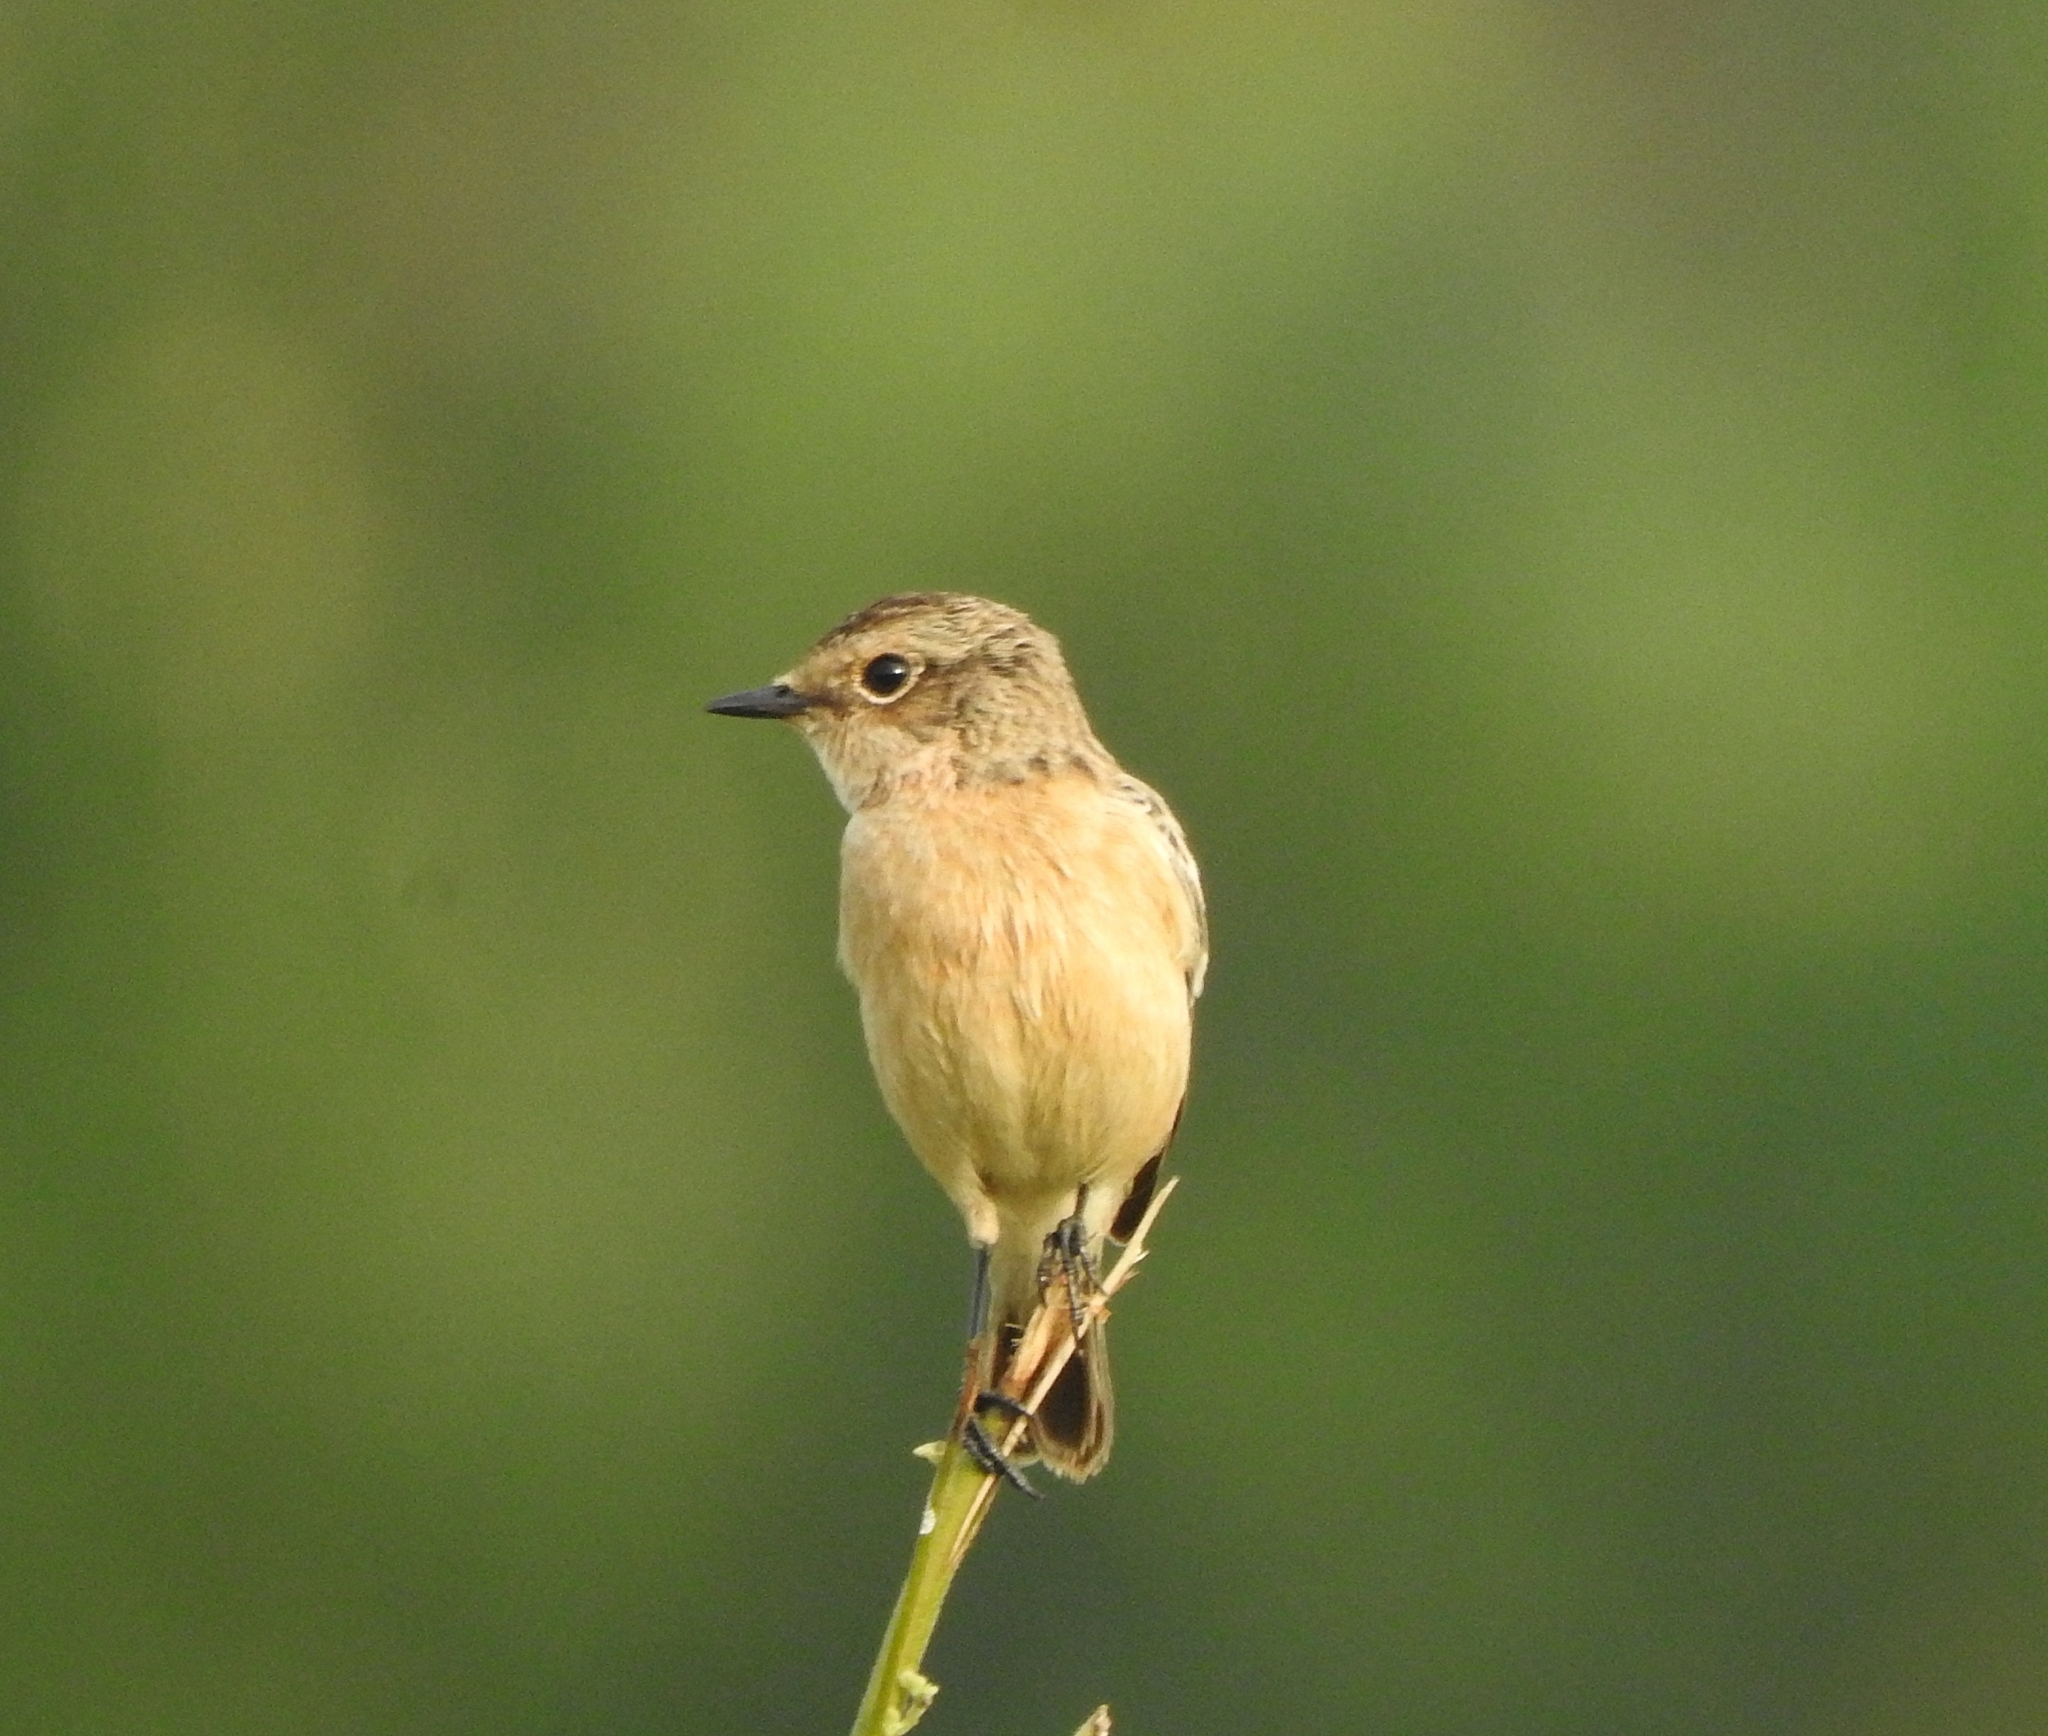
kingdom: Animalia
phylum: Chordata
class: Aves
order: Passeriformes
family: Muscicapidae
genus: Saxicola
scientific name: Saxicola maurus
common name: Siberian stonechat
